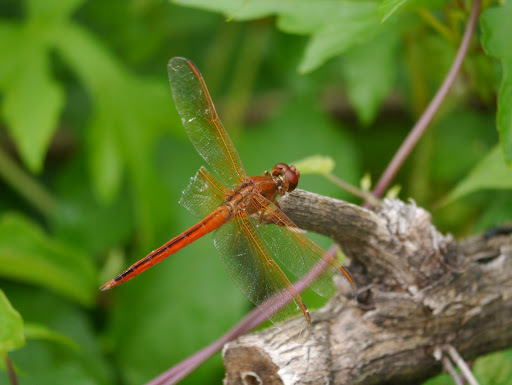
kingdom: Animalia
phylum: Arthropoda
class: Insecta
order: Odonata
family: Libellulidae
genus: Libellula
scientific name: Libellula needhami
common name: Needham's skimmer
